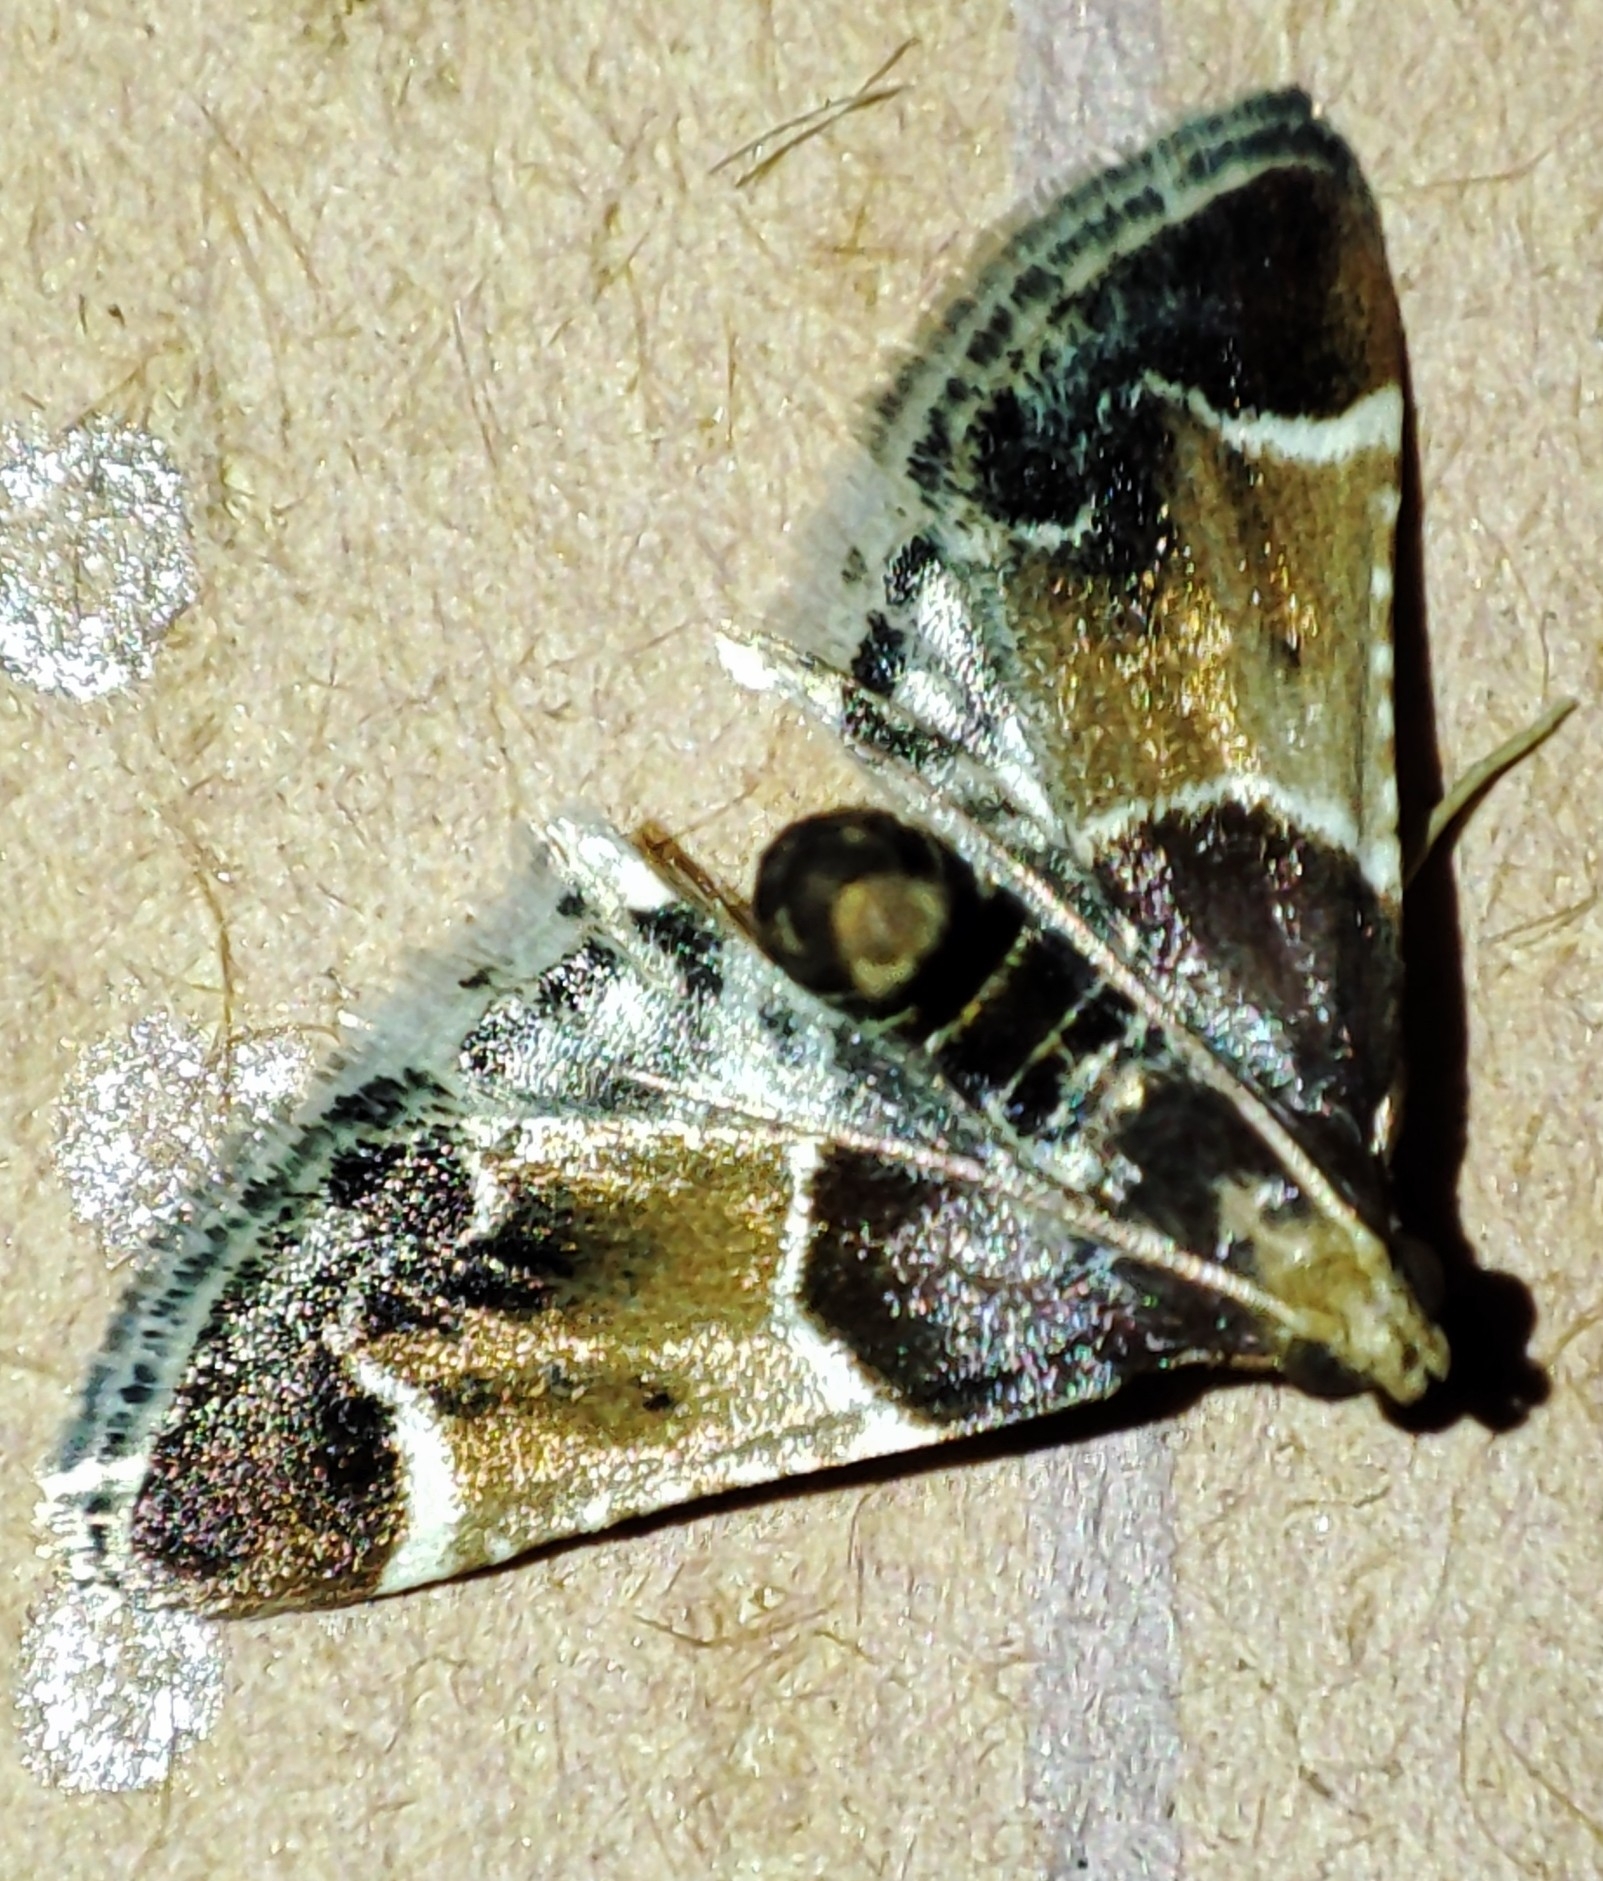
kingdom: Animalia
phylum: Arthropoda
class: Insecta
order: Lepidoptera
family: Pyralidae
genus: Pyralis
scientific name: Pyralis farinalis
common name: Meal moth
